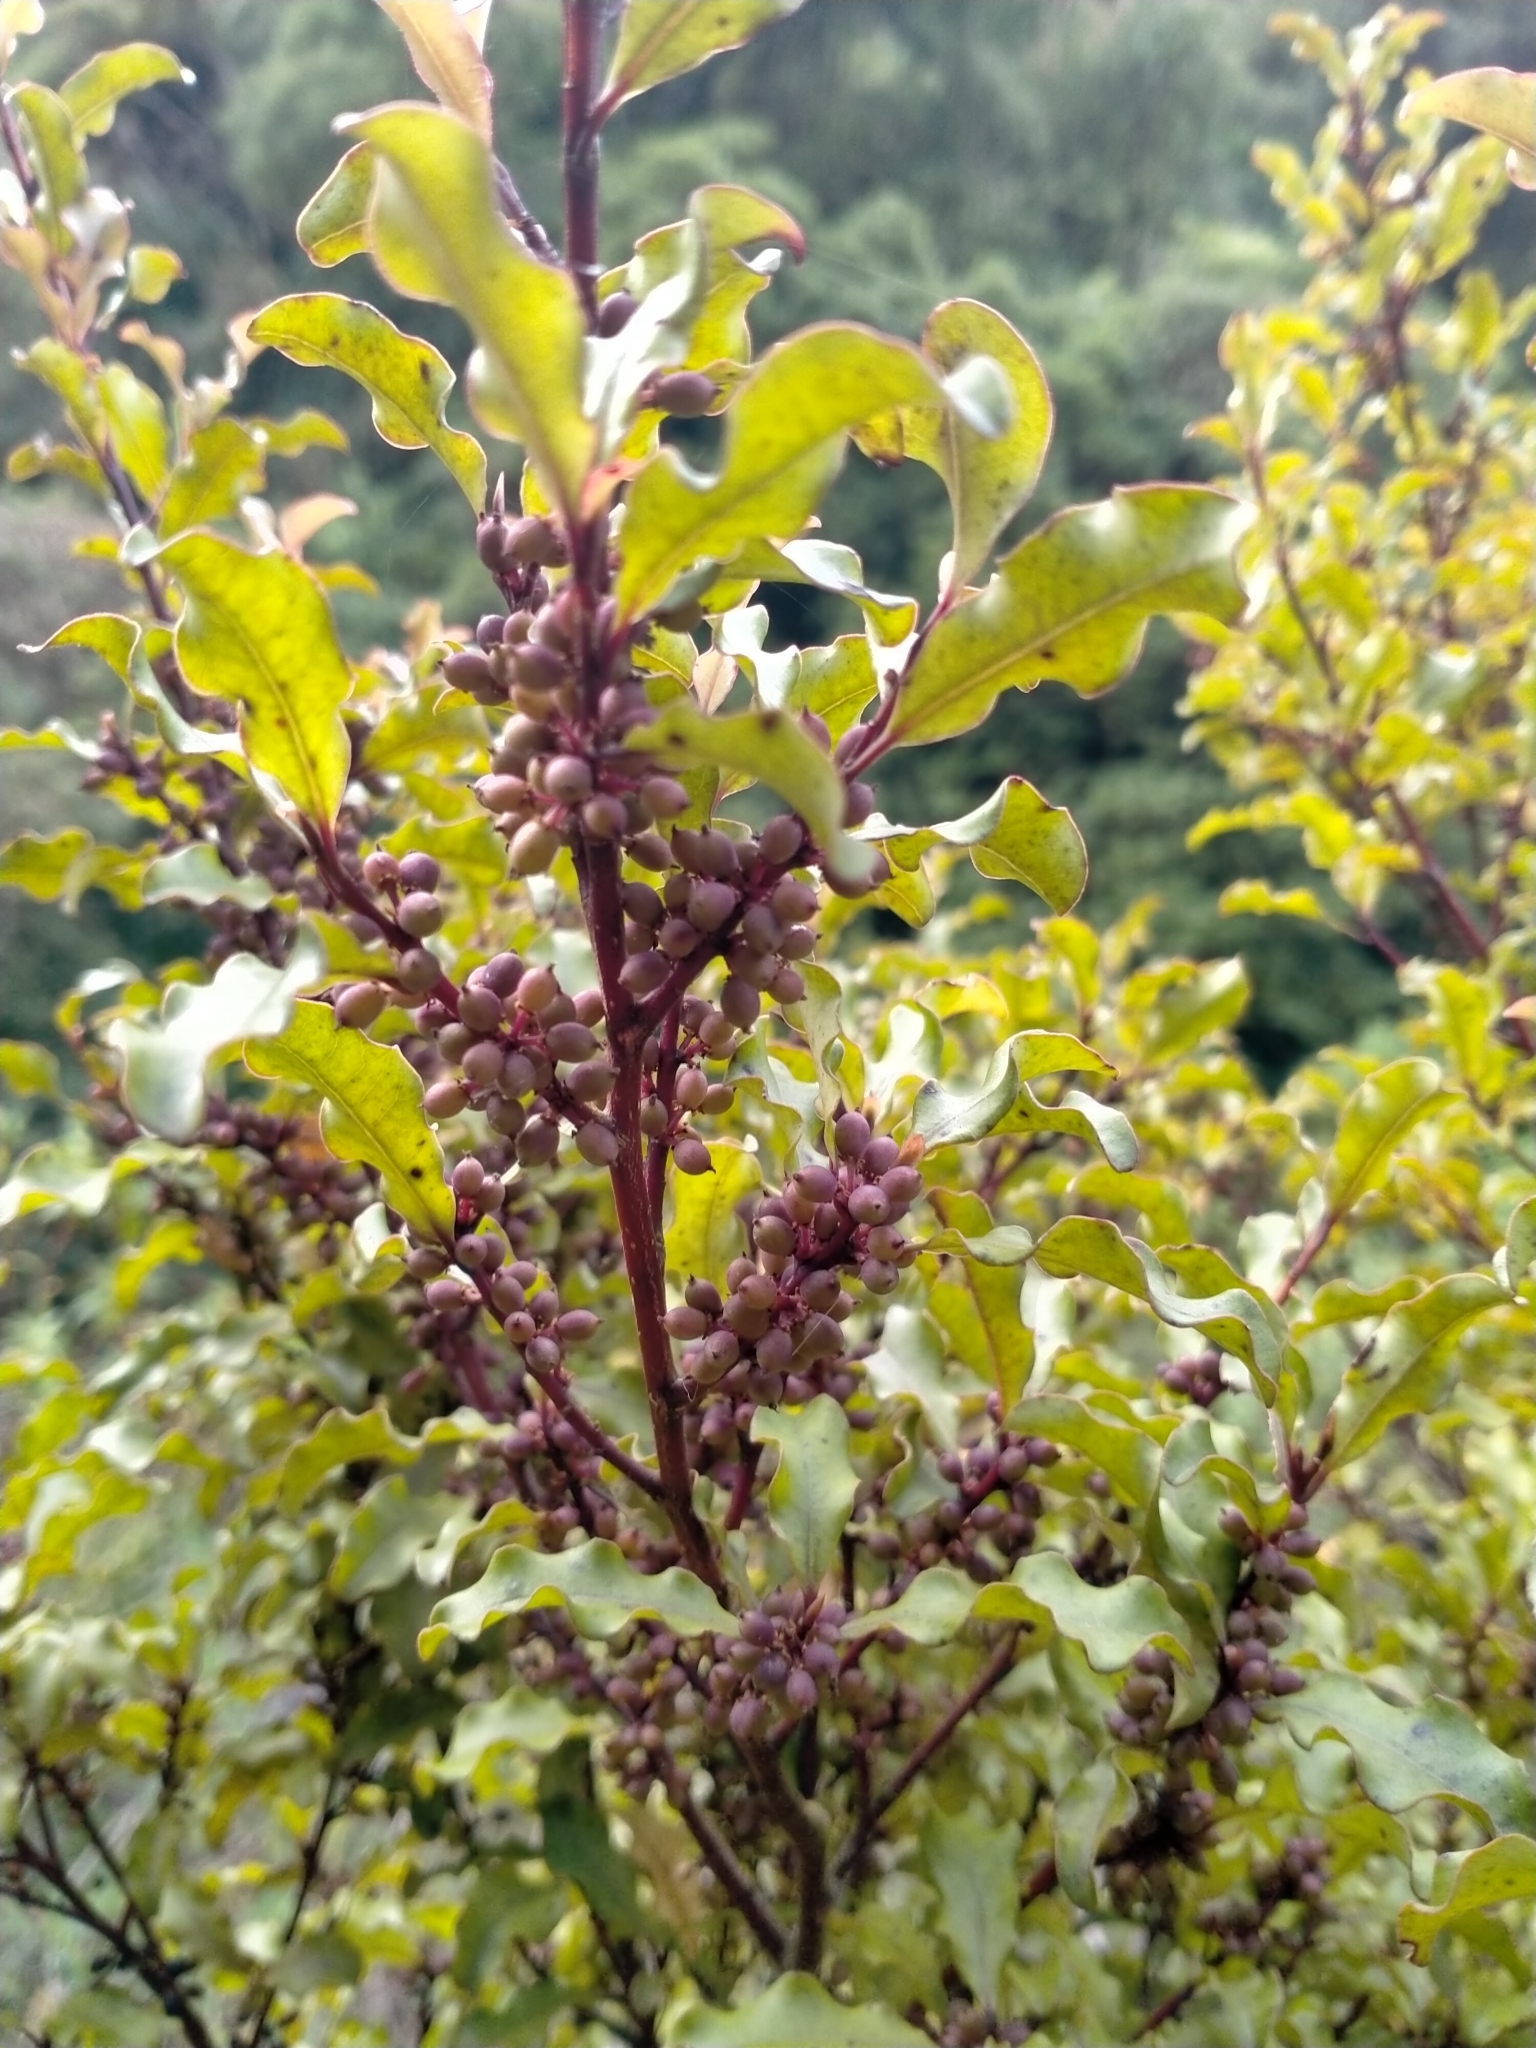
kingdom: Plantae
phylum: Tracheophyta
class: Magnoliopsida
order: Ericales
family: Primulaceae
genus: Myrsine
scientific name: Myrsine australis
